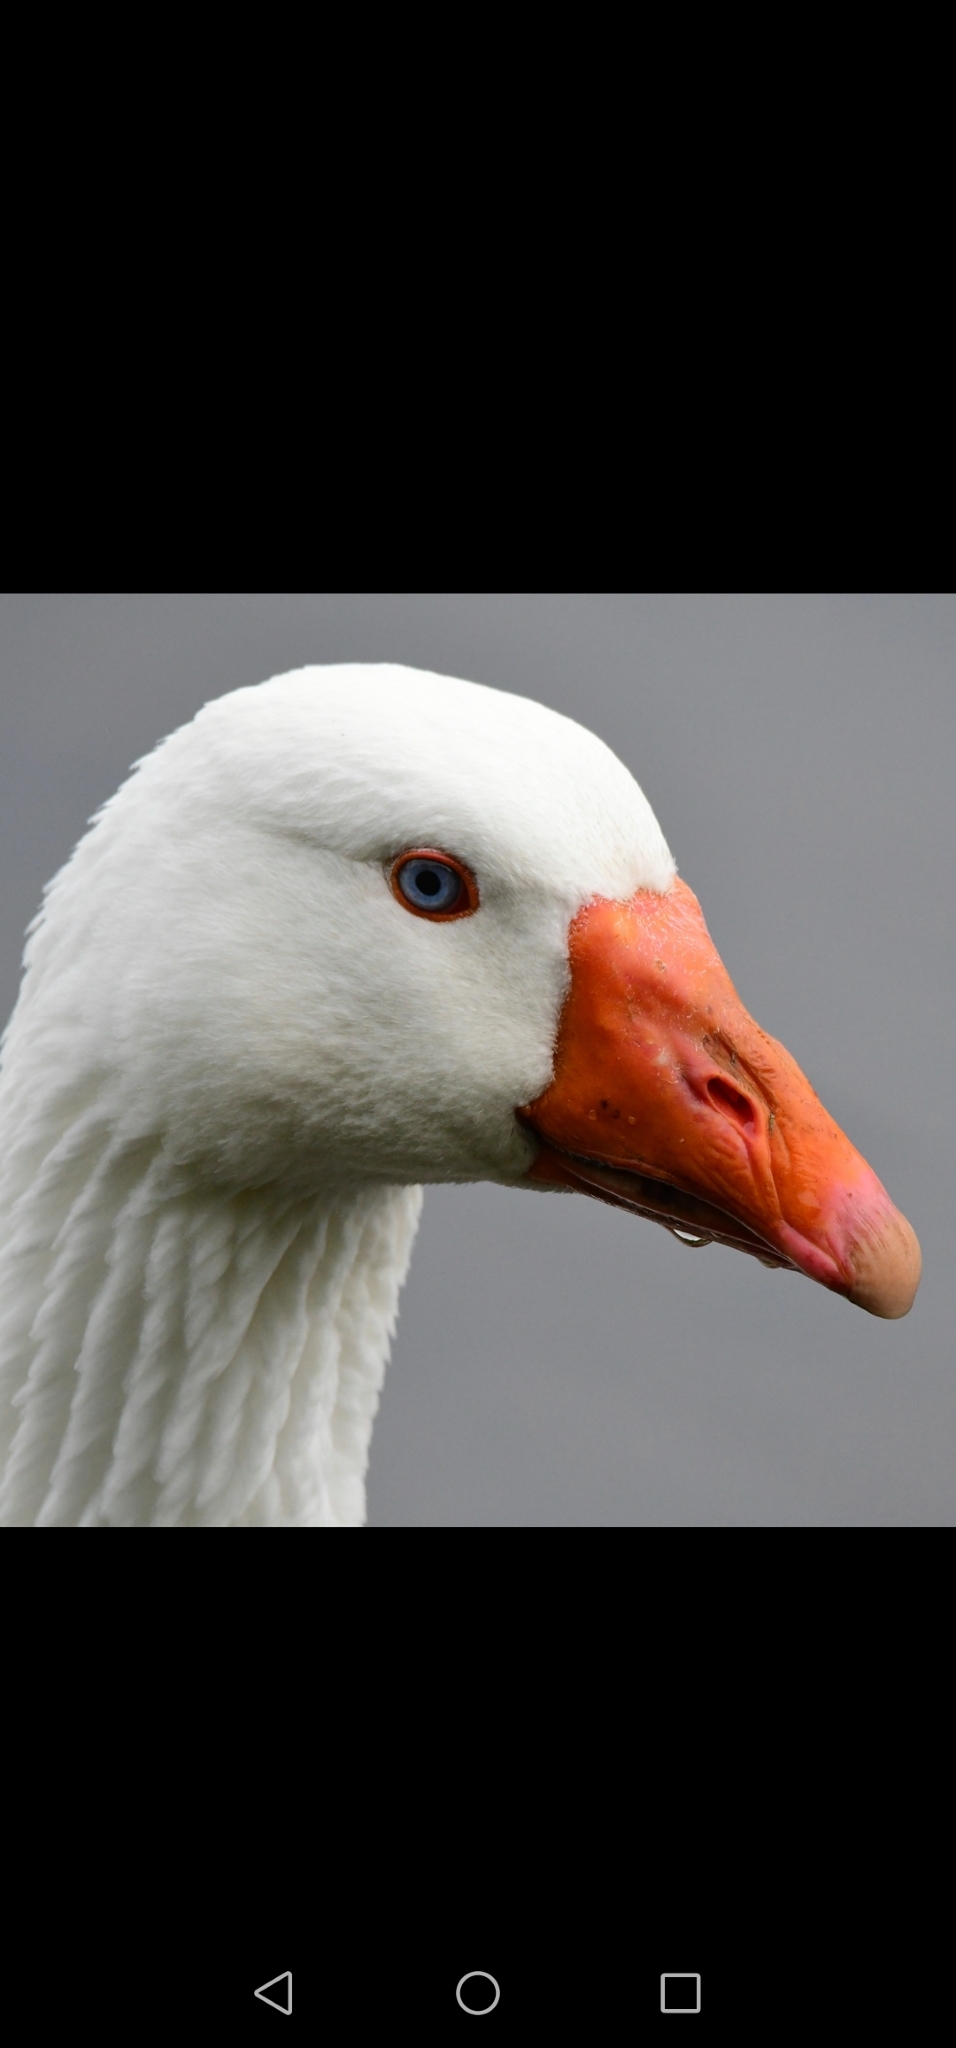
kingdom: Animalia
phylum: Chordata
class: Aves
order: Anseriformes
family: Anatidae
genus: Anser
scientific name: Anser anser
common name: Greylag goose
